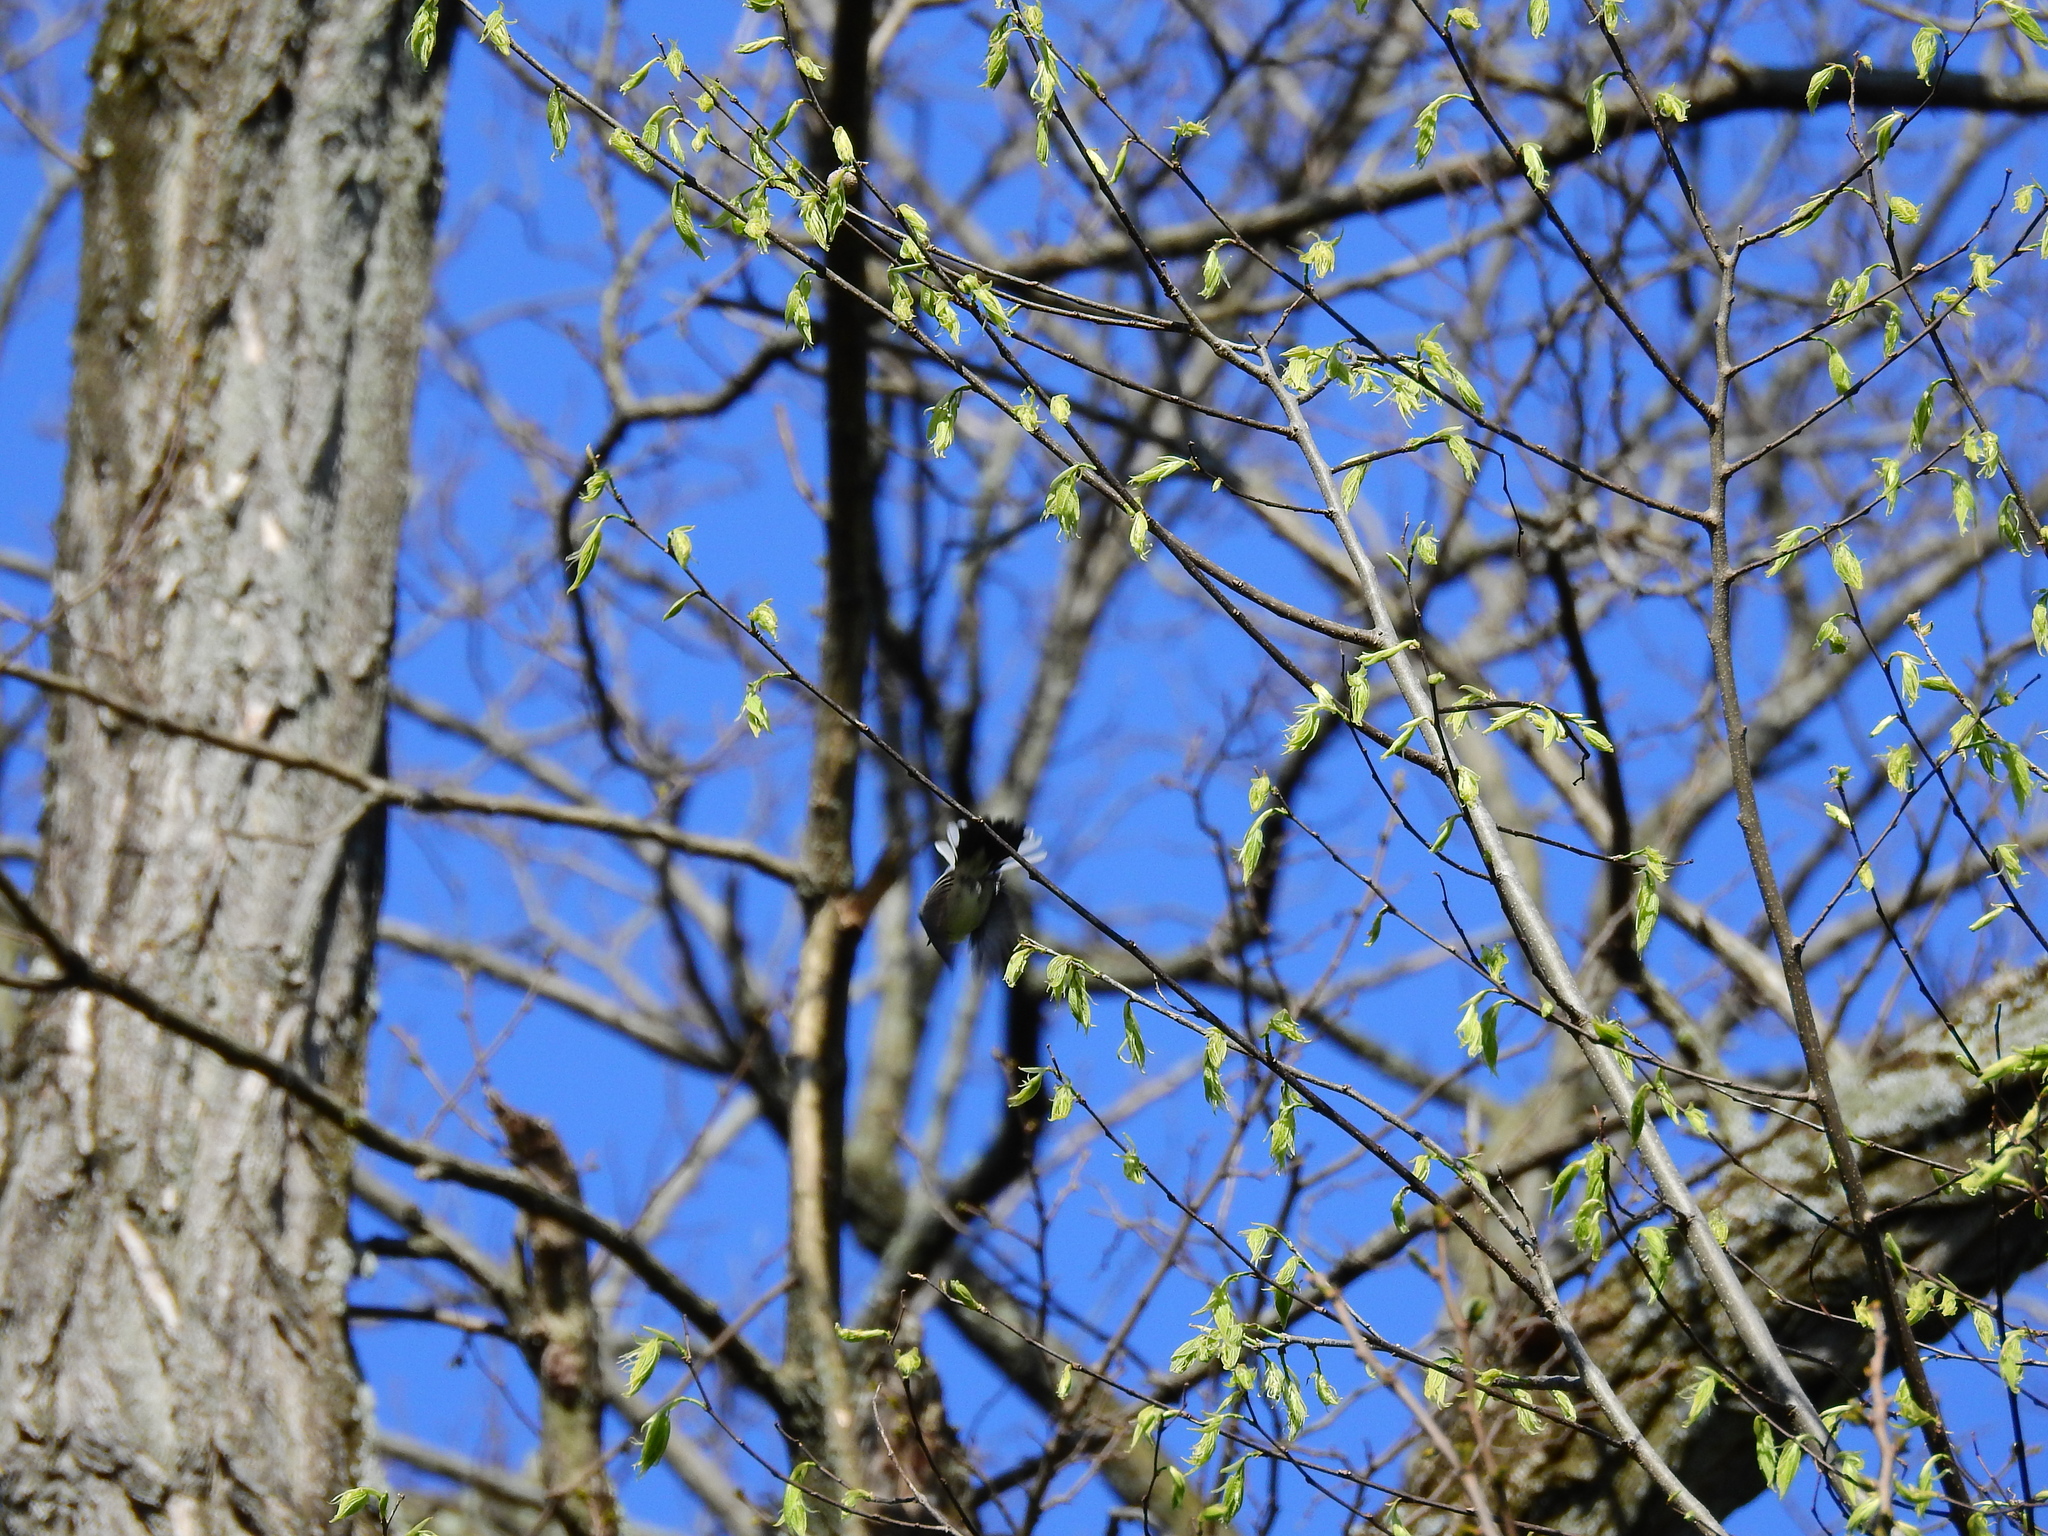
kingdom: Animalia
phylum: Chordata
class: Aves
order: Passeriformes
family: Polioptilidae
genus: Polioptila
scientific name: Polioptila caerulea
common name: Blue-gray gnatcatcher
